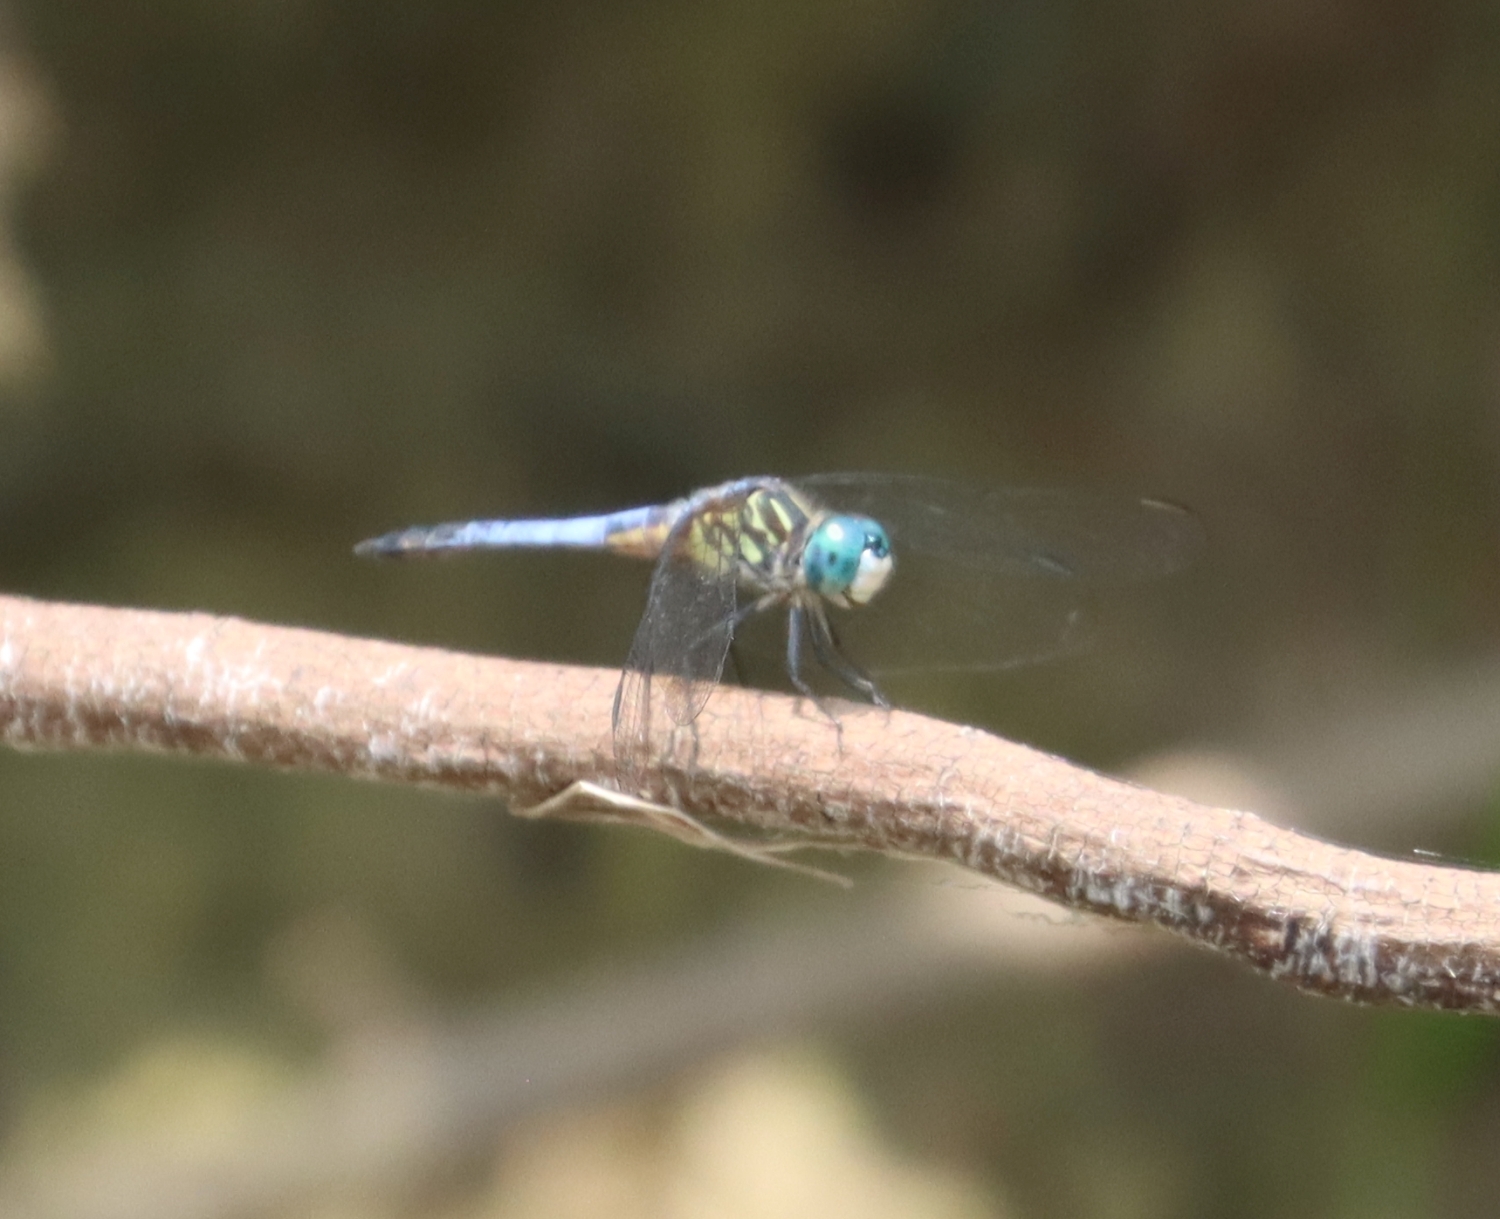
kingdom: Animalia
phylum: Arthropoda
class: Insecta
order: Odonata
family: Libellulidae
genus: Pachydiplax
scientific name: Pachydiplax longipennis
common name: Blue dasher
